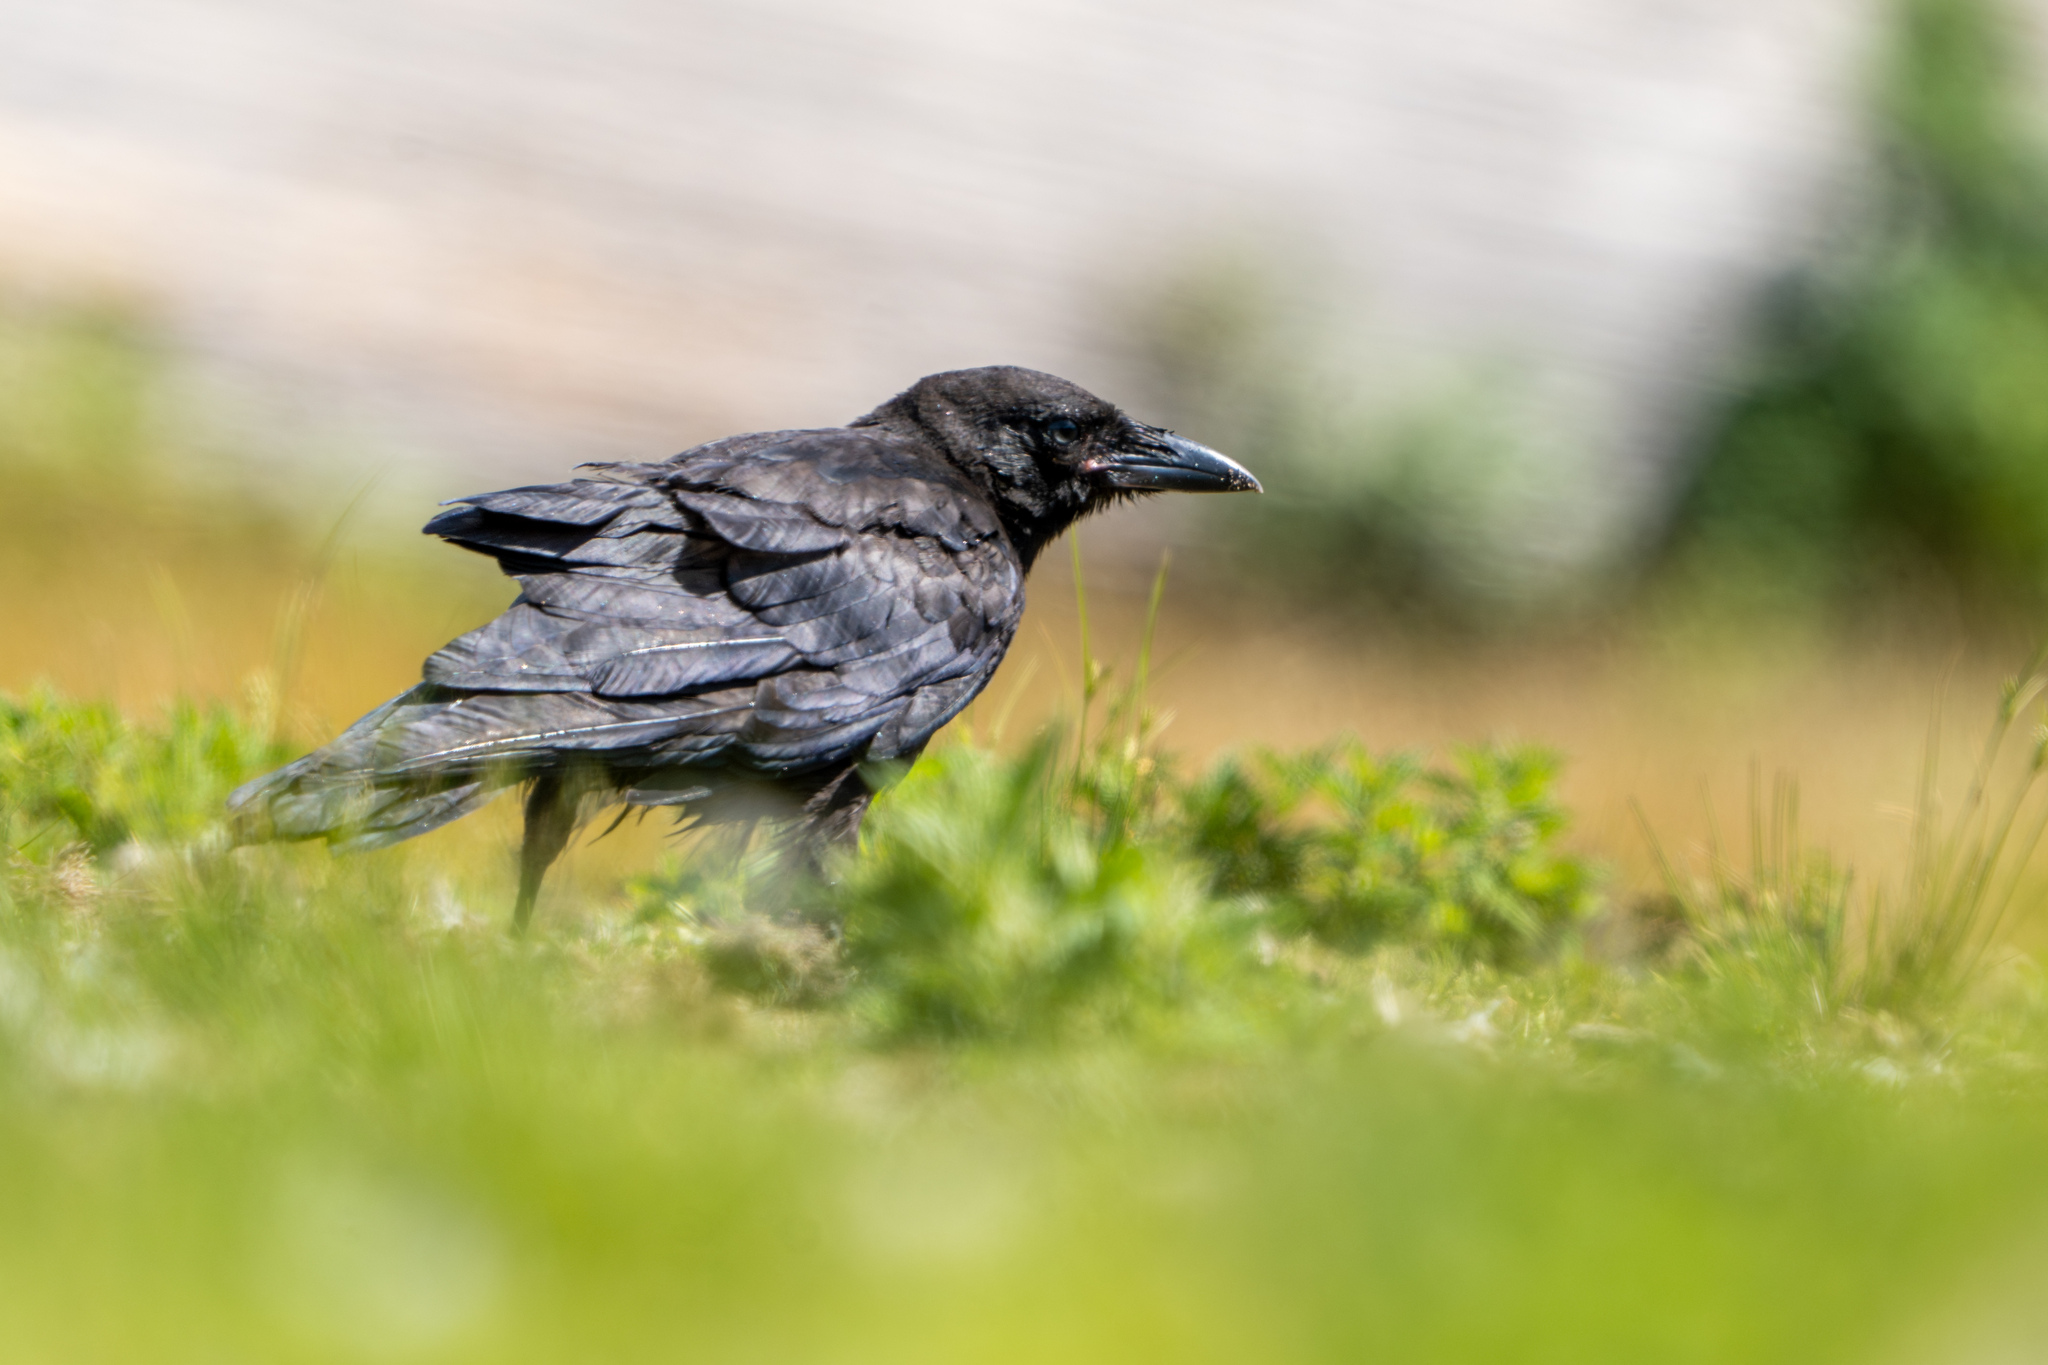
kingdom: Animalia
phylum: Chordata
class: Aves
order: Passeriformes
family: Corvidae
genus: Corvus
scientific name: Corvus brachyrhynchos
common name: American crow
